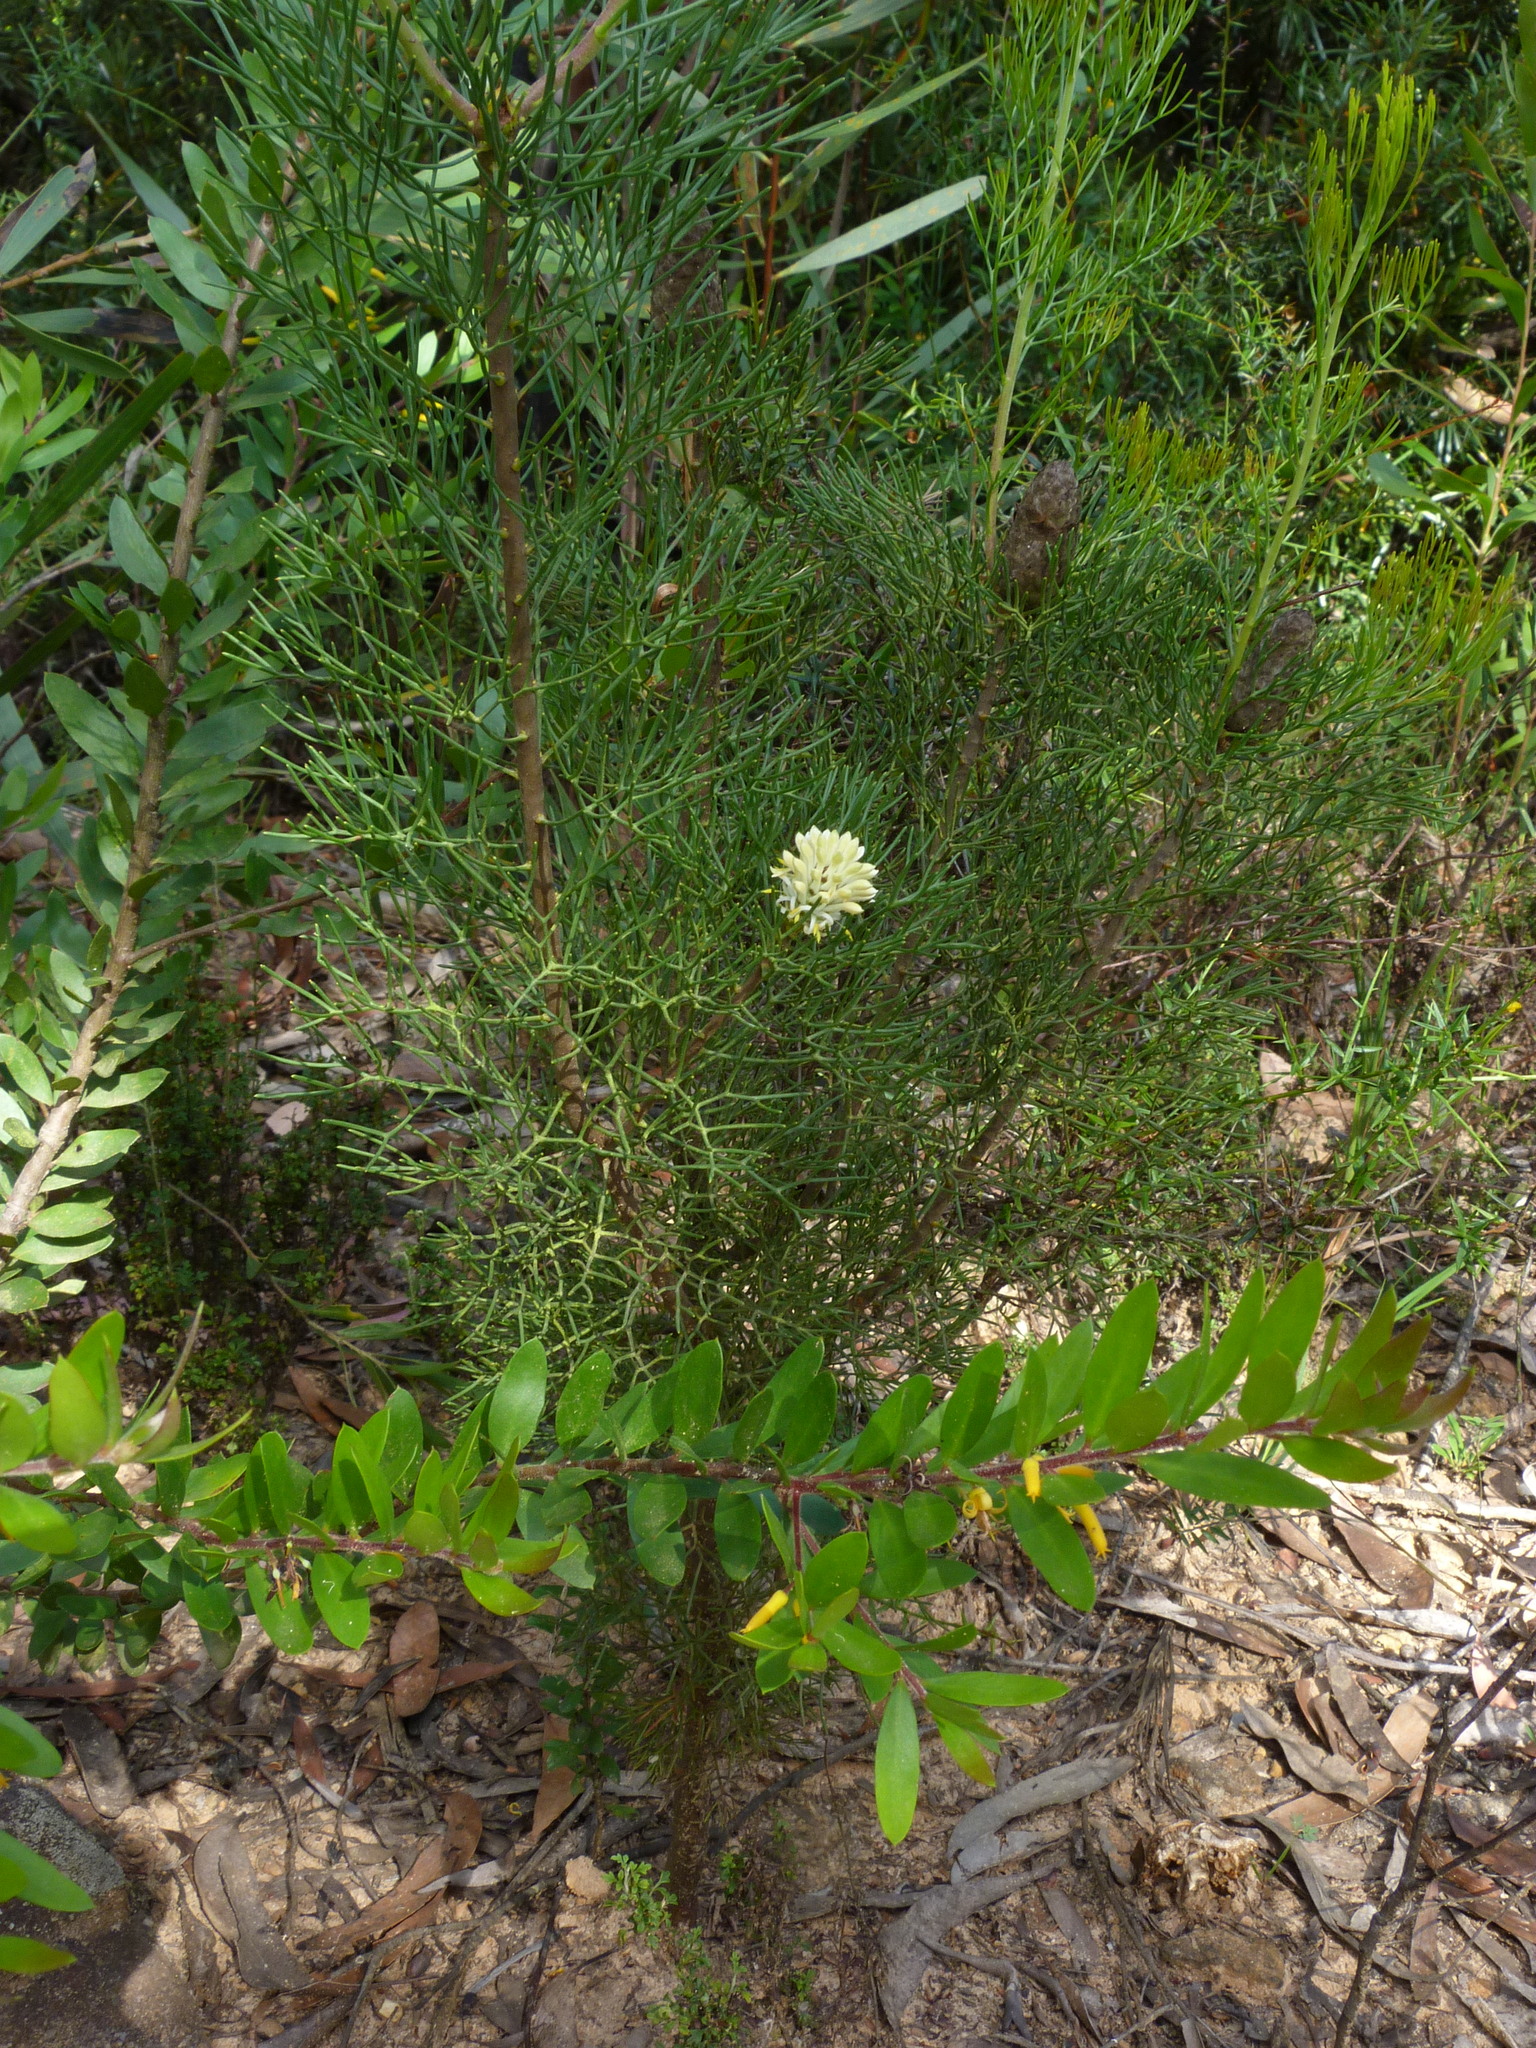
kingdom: Plantae
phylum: Tracheophyta
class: Magnoliopsida
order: Proteales
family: Proteaceae
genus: Petrophile
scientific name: Petrophile pulchella
